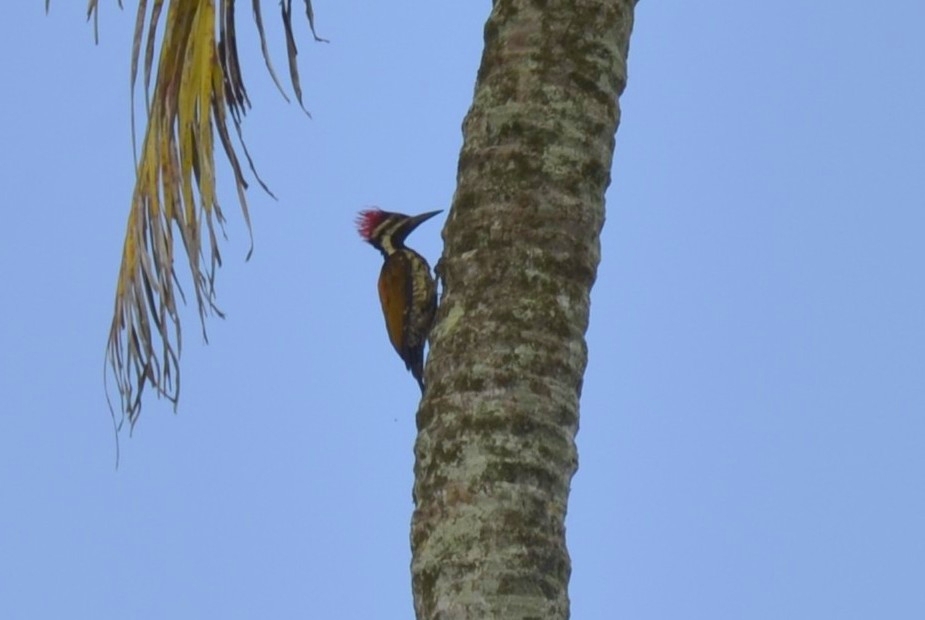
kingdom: Animalia
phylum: Chordata
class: Aves
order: Piciformes
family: Picidae
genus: Dinopium
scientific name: Dinopium benghalense
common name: Black-rumped flameback
